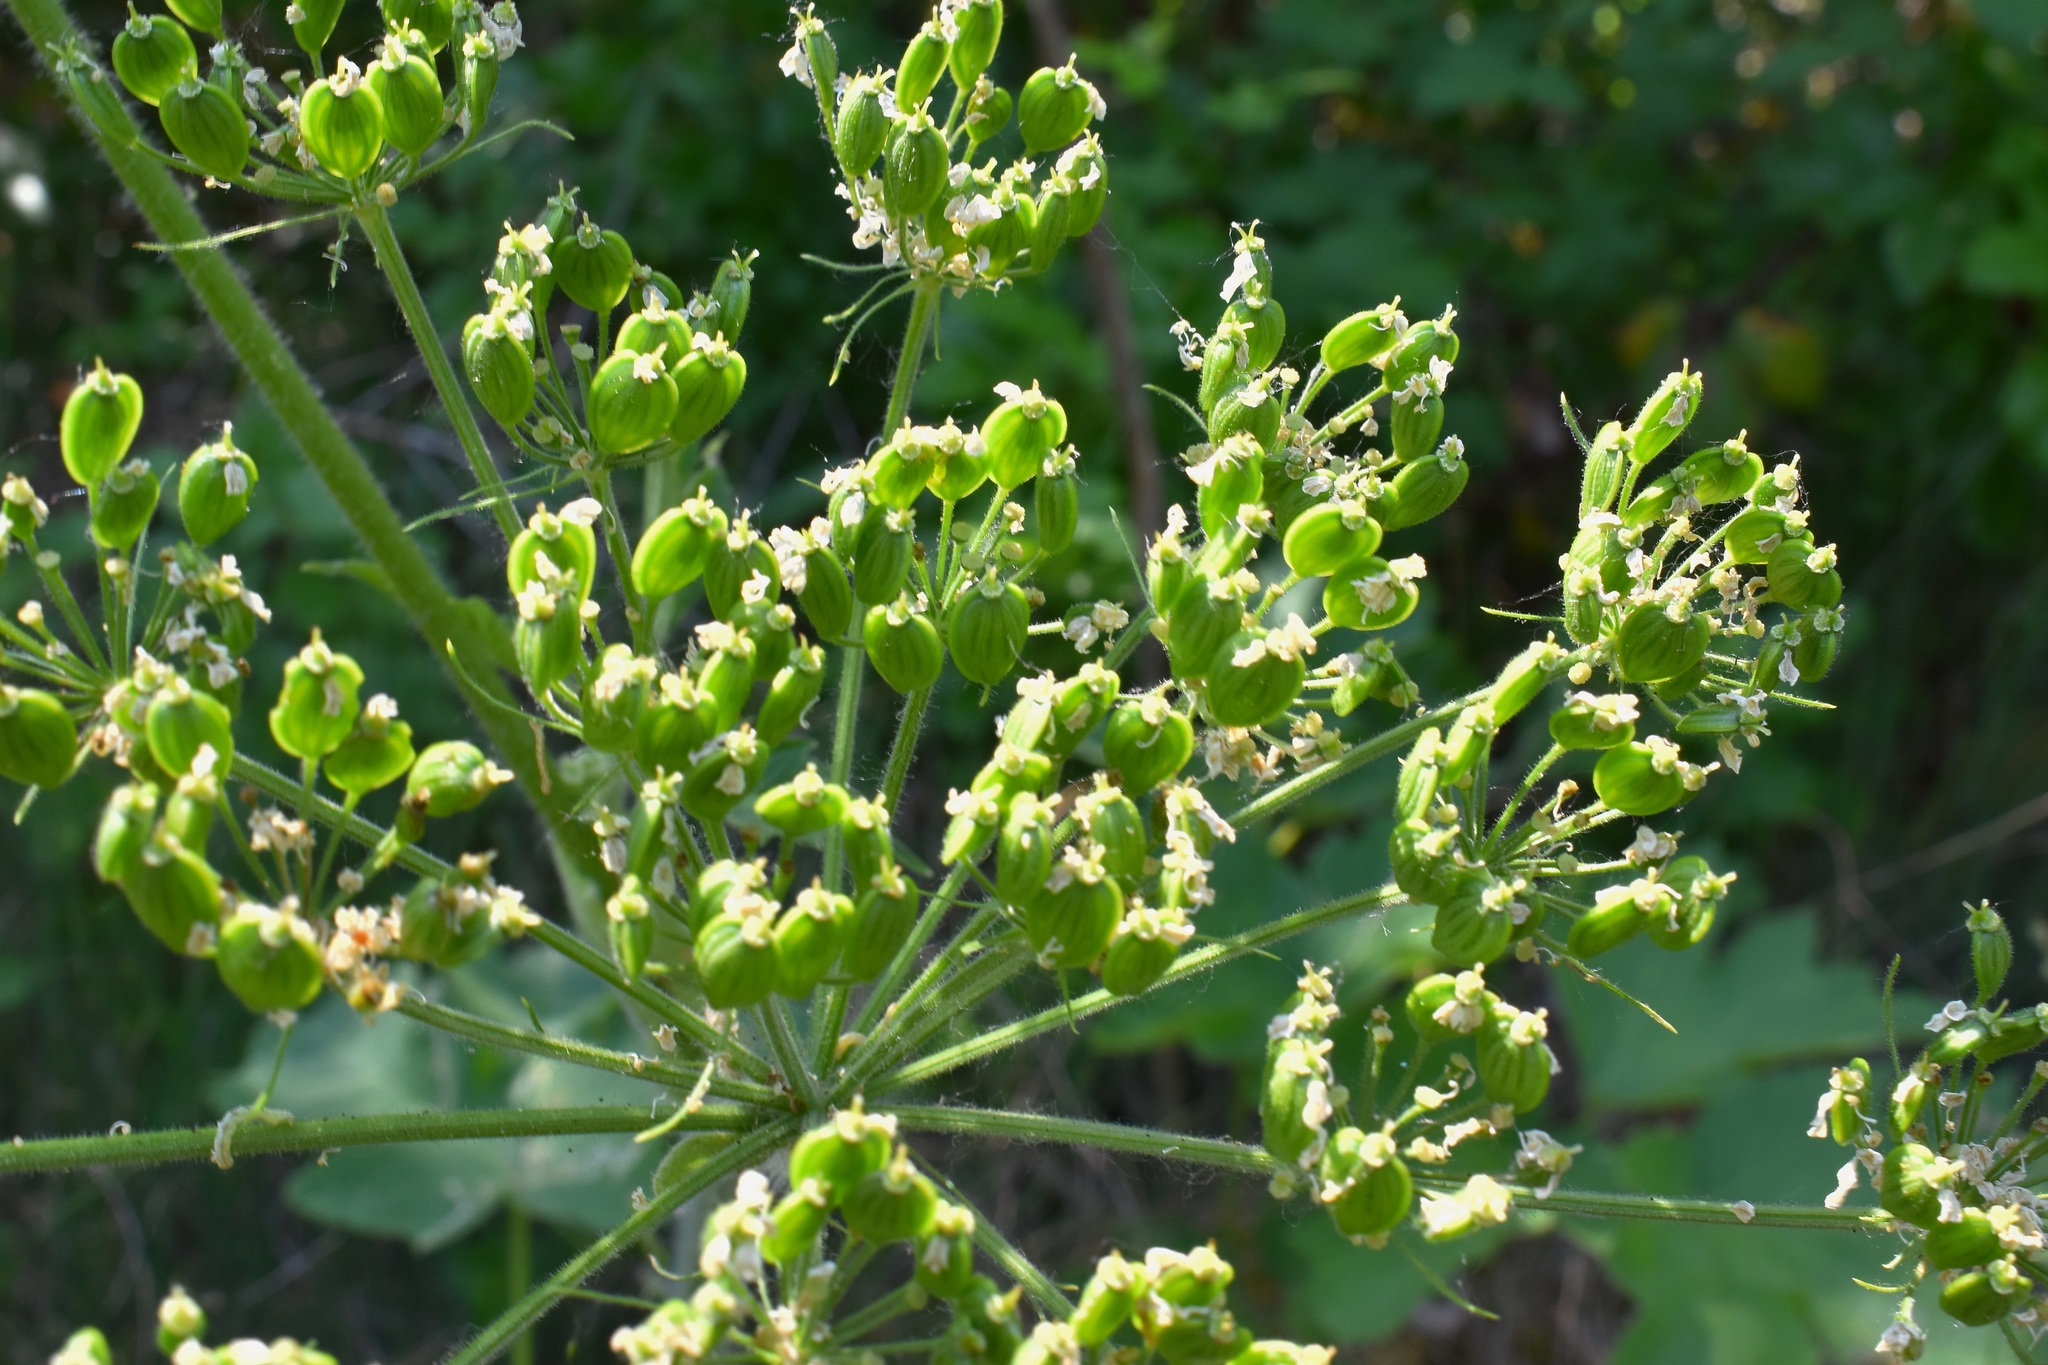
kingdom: Plantae
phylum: Tracheophyta
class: Magnoliopsida
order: Apiales
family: Apiaceae
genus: Heracleum
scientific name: Heracleum maximum
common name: American cow parsnip
